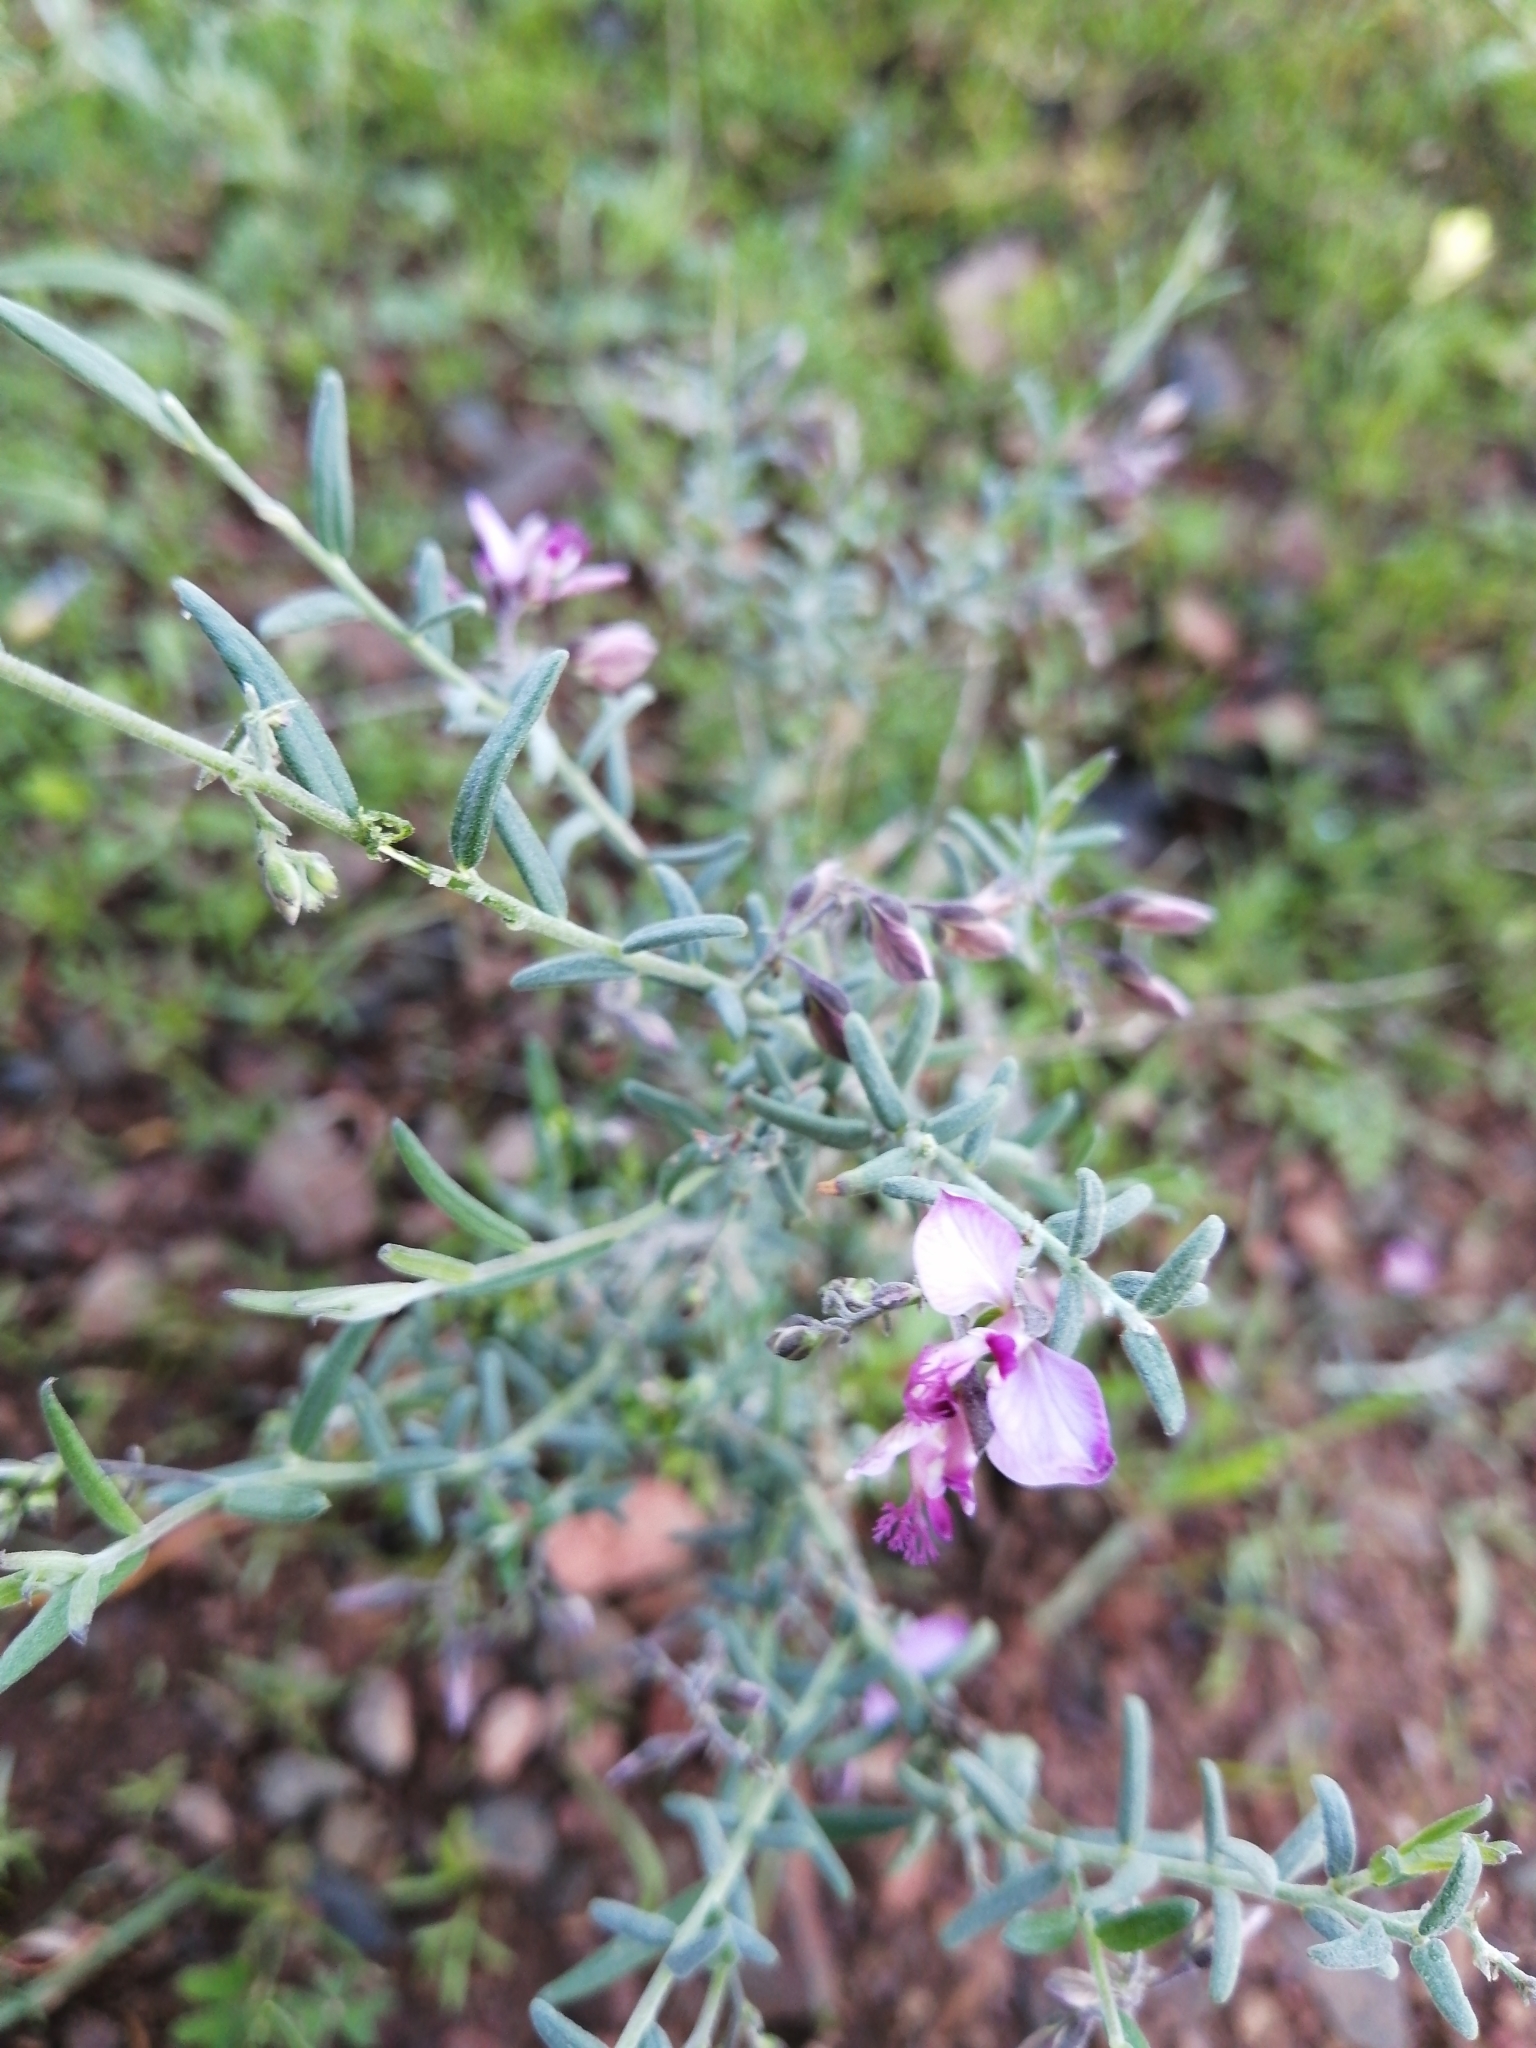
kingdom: Plantae
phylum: Tracheophyta
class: Magnoliopsida
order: Fabales
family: Polygalaceae
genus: Polygala
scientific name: Polygala scabra
